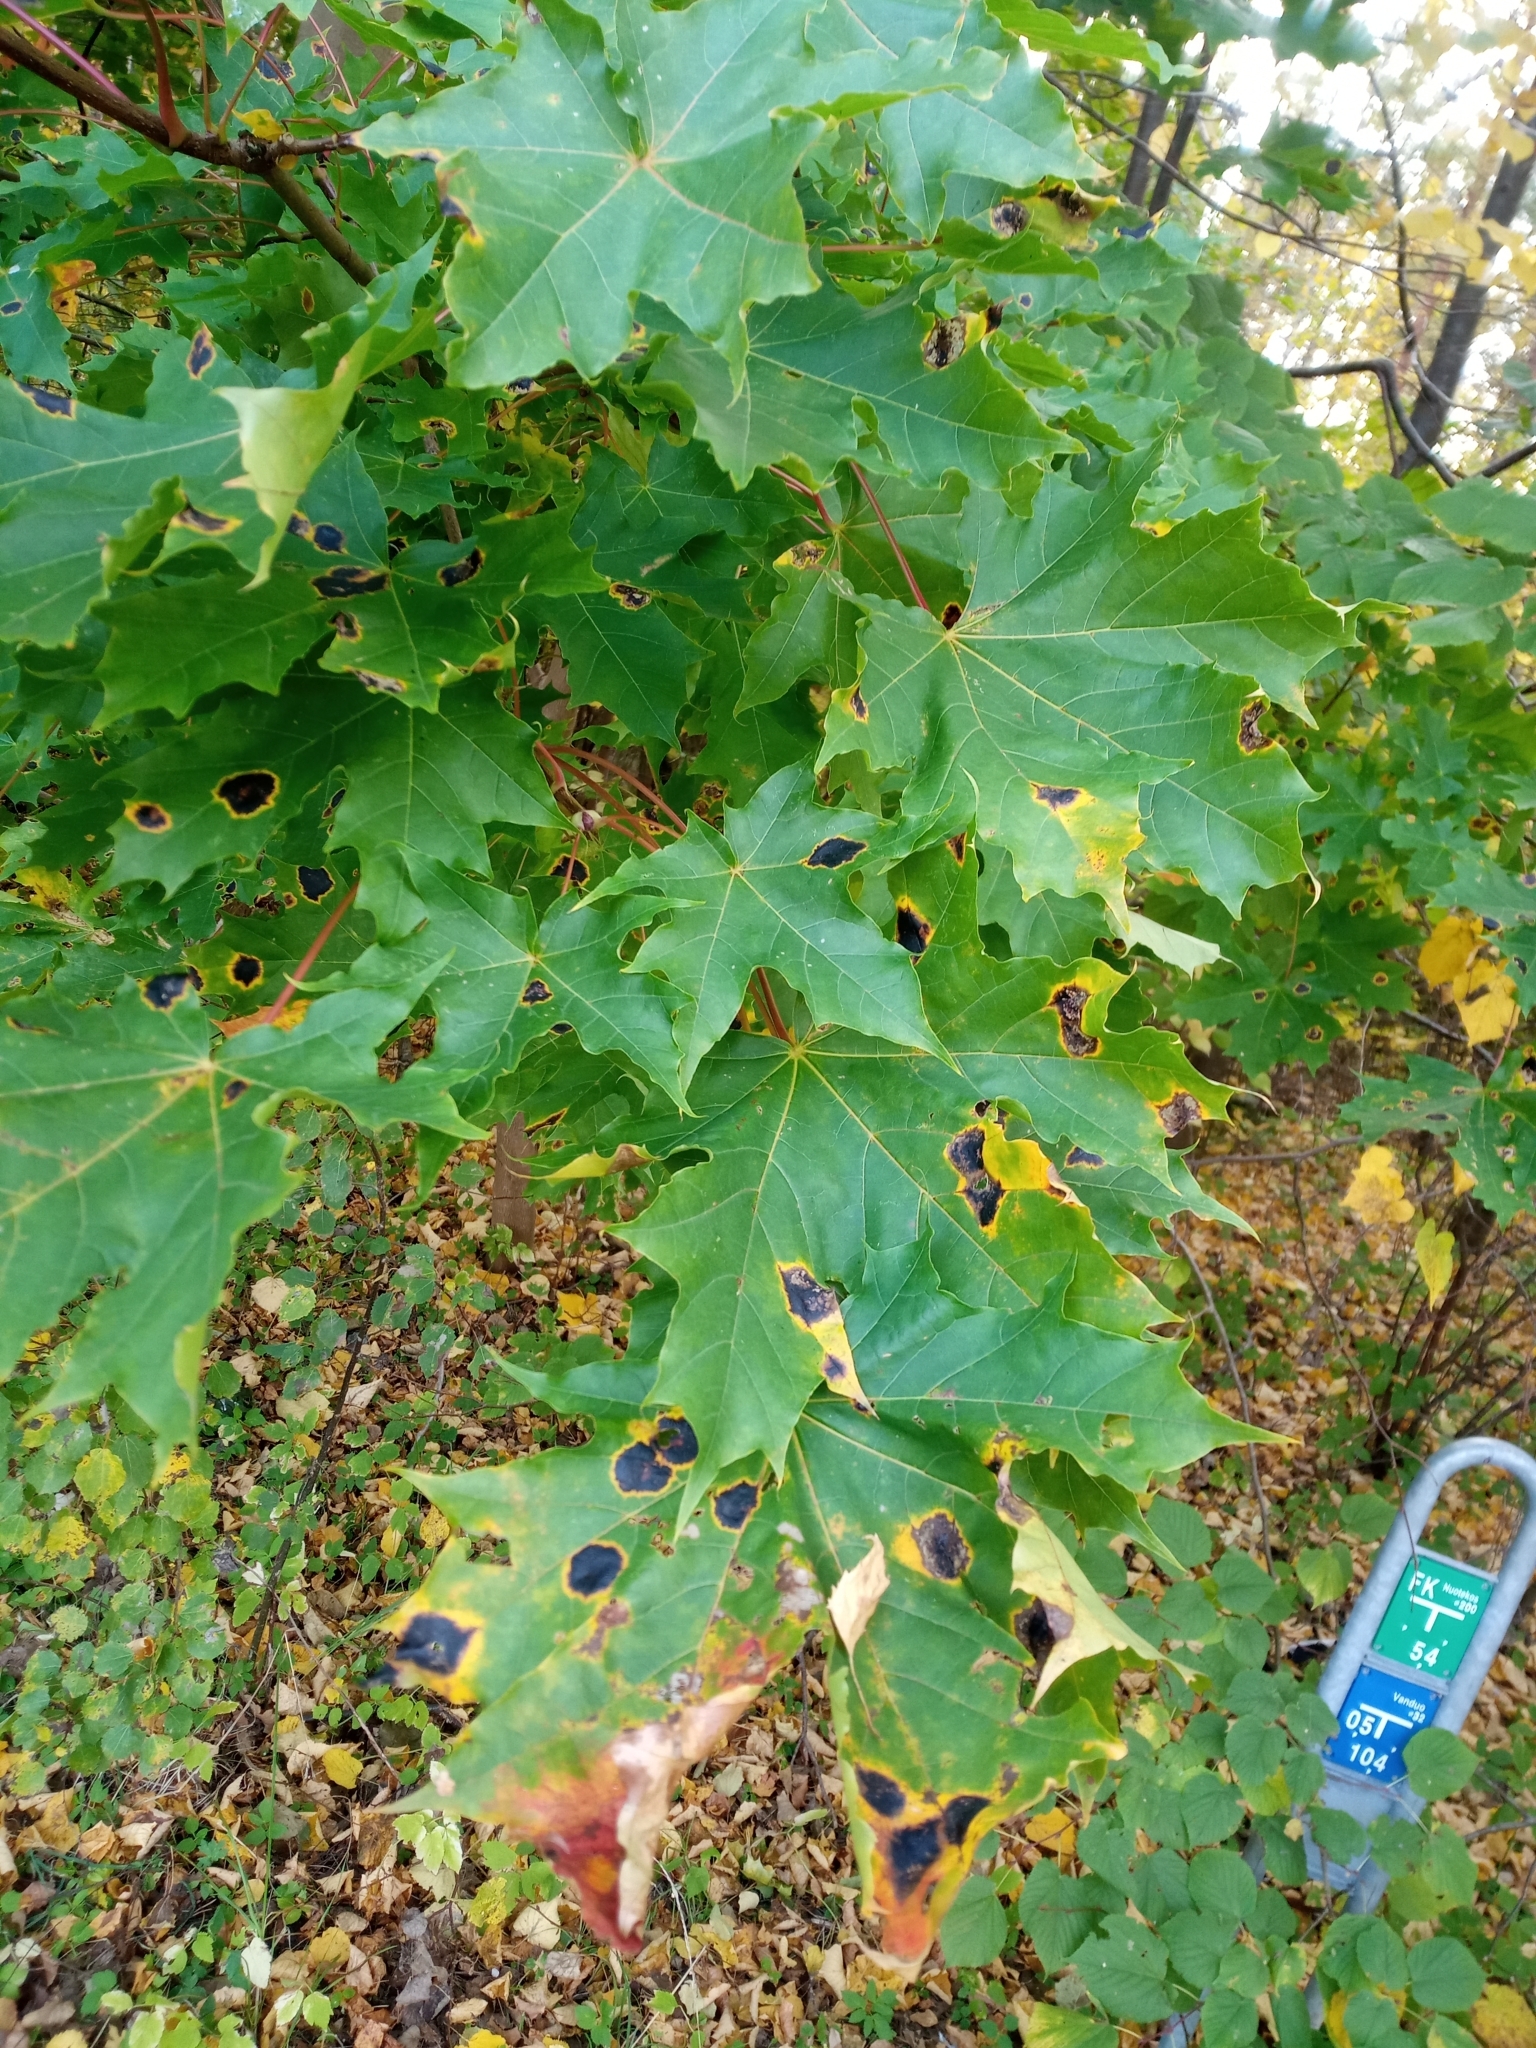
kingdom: Fungi
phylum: Ascomycota
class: Leotiomycetes
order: Rhytismatales
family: Rhytismataceae
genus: Rhytisma
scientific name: Rhytisma acerinum
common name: European tar spot
